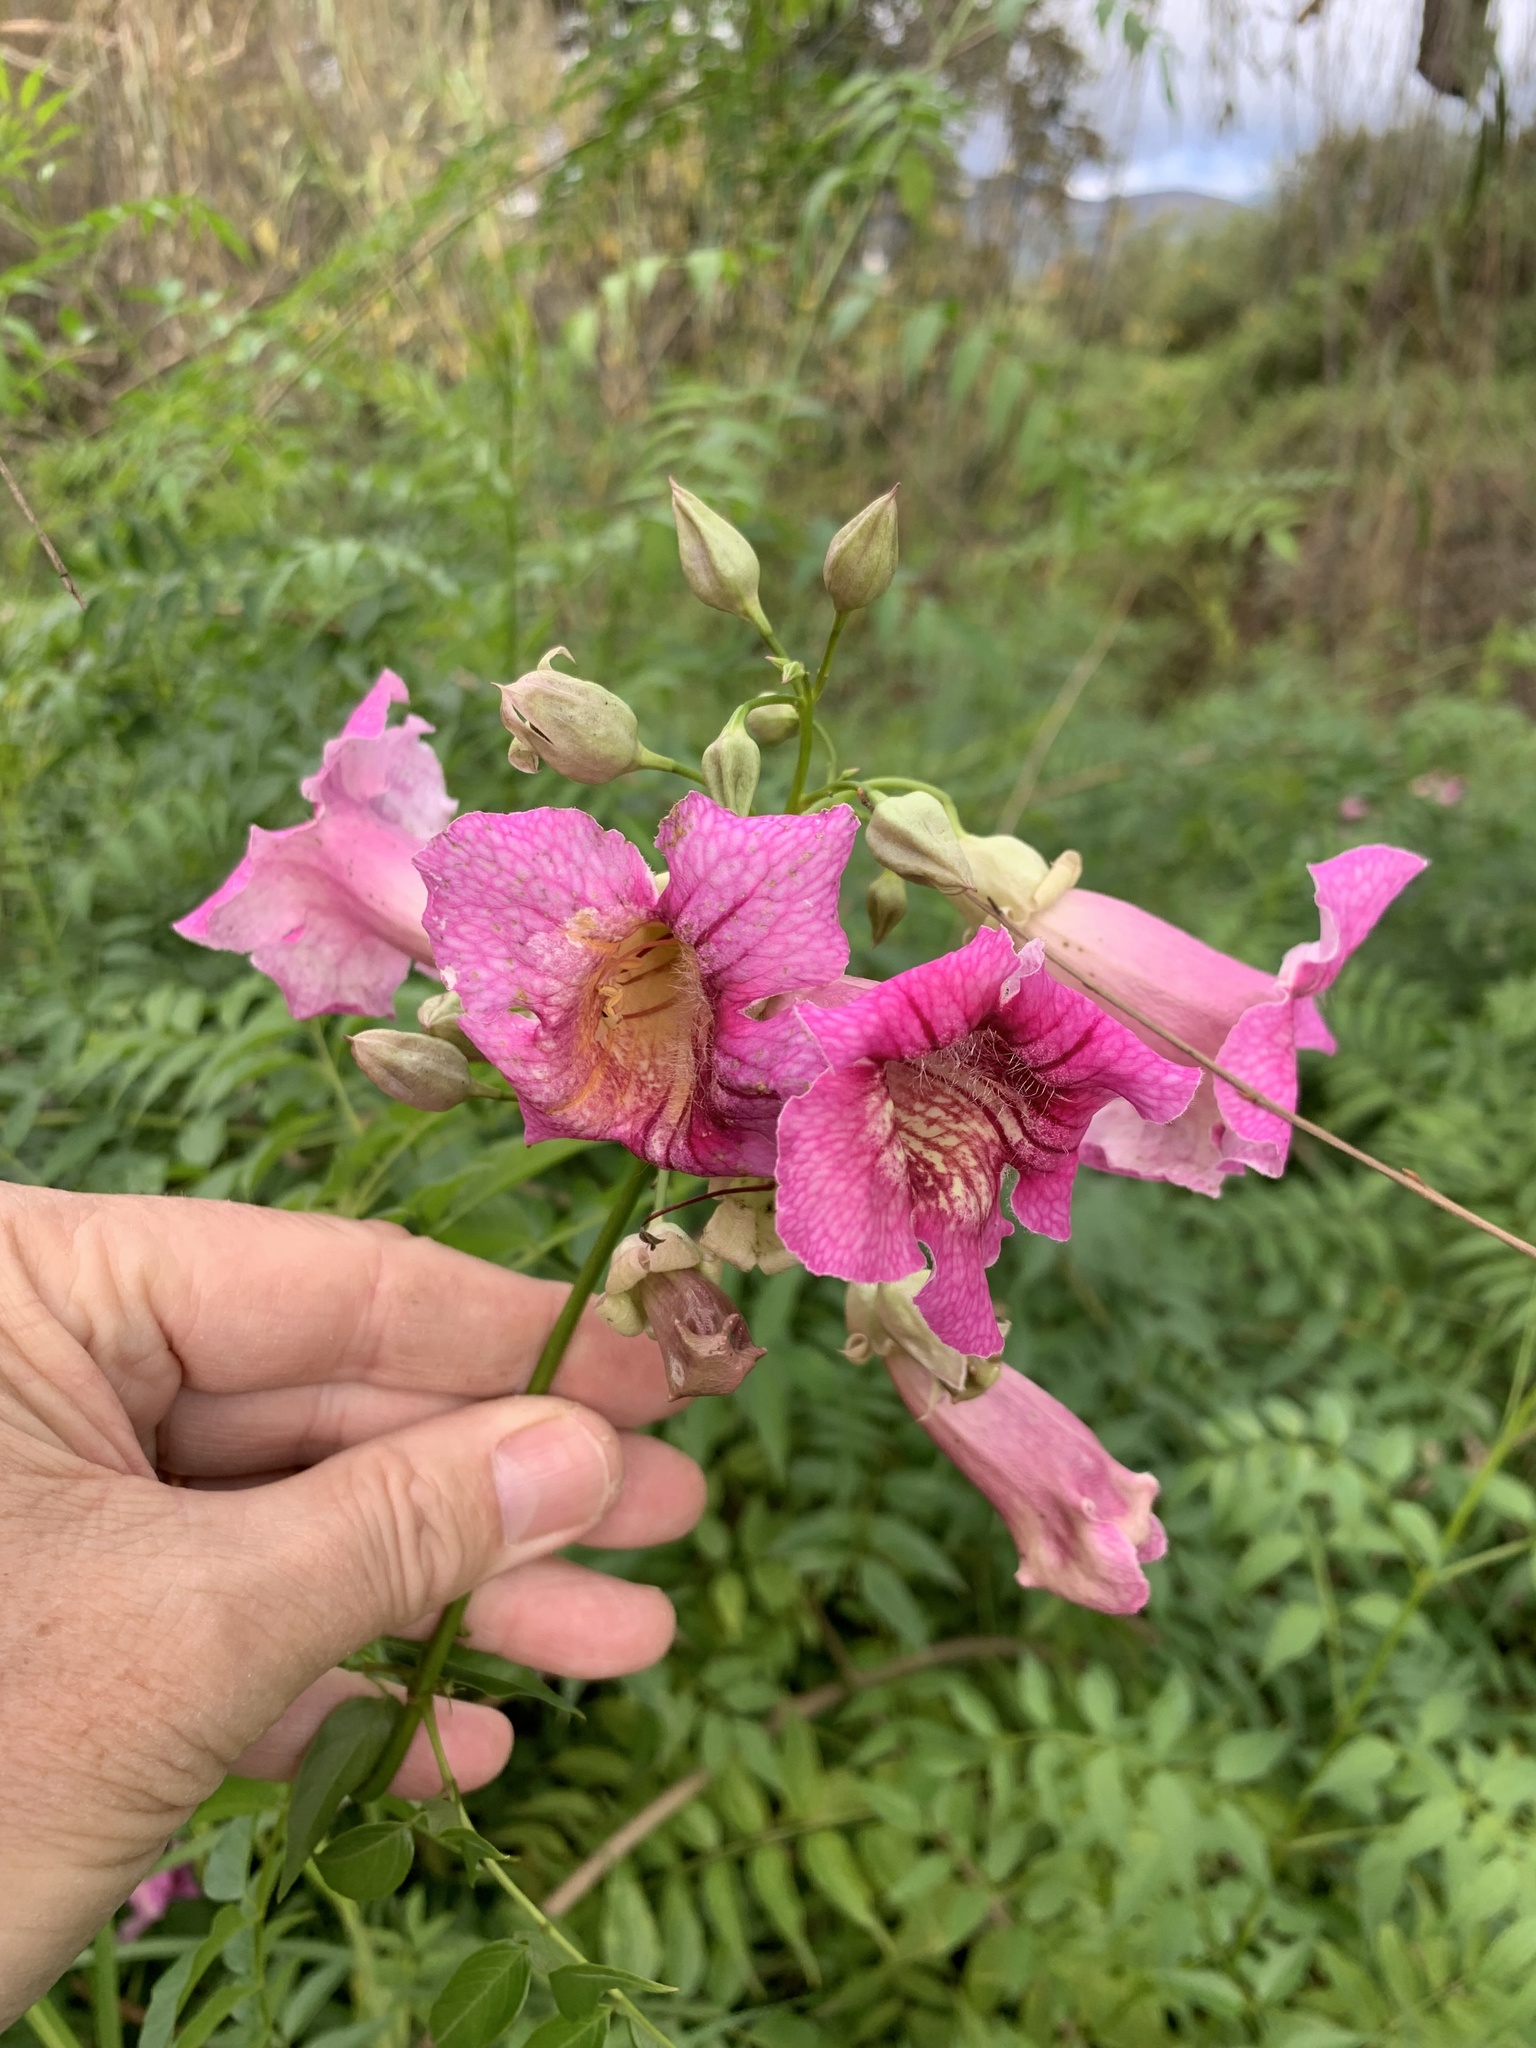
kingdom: Plantae
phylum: Tracheophyta
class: Magnoliopsida
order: Lamiales
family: Bignoniaceae
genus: Podranea
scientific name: Podranea ricasoliana
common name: Zimbabwe creeper
